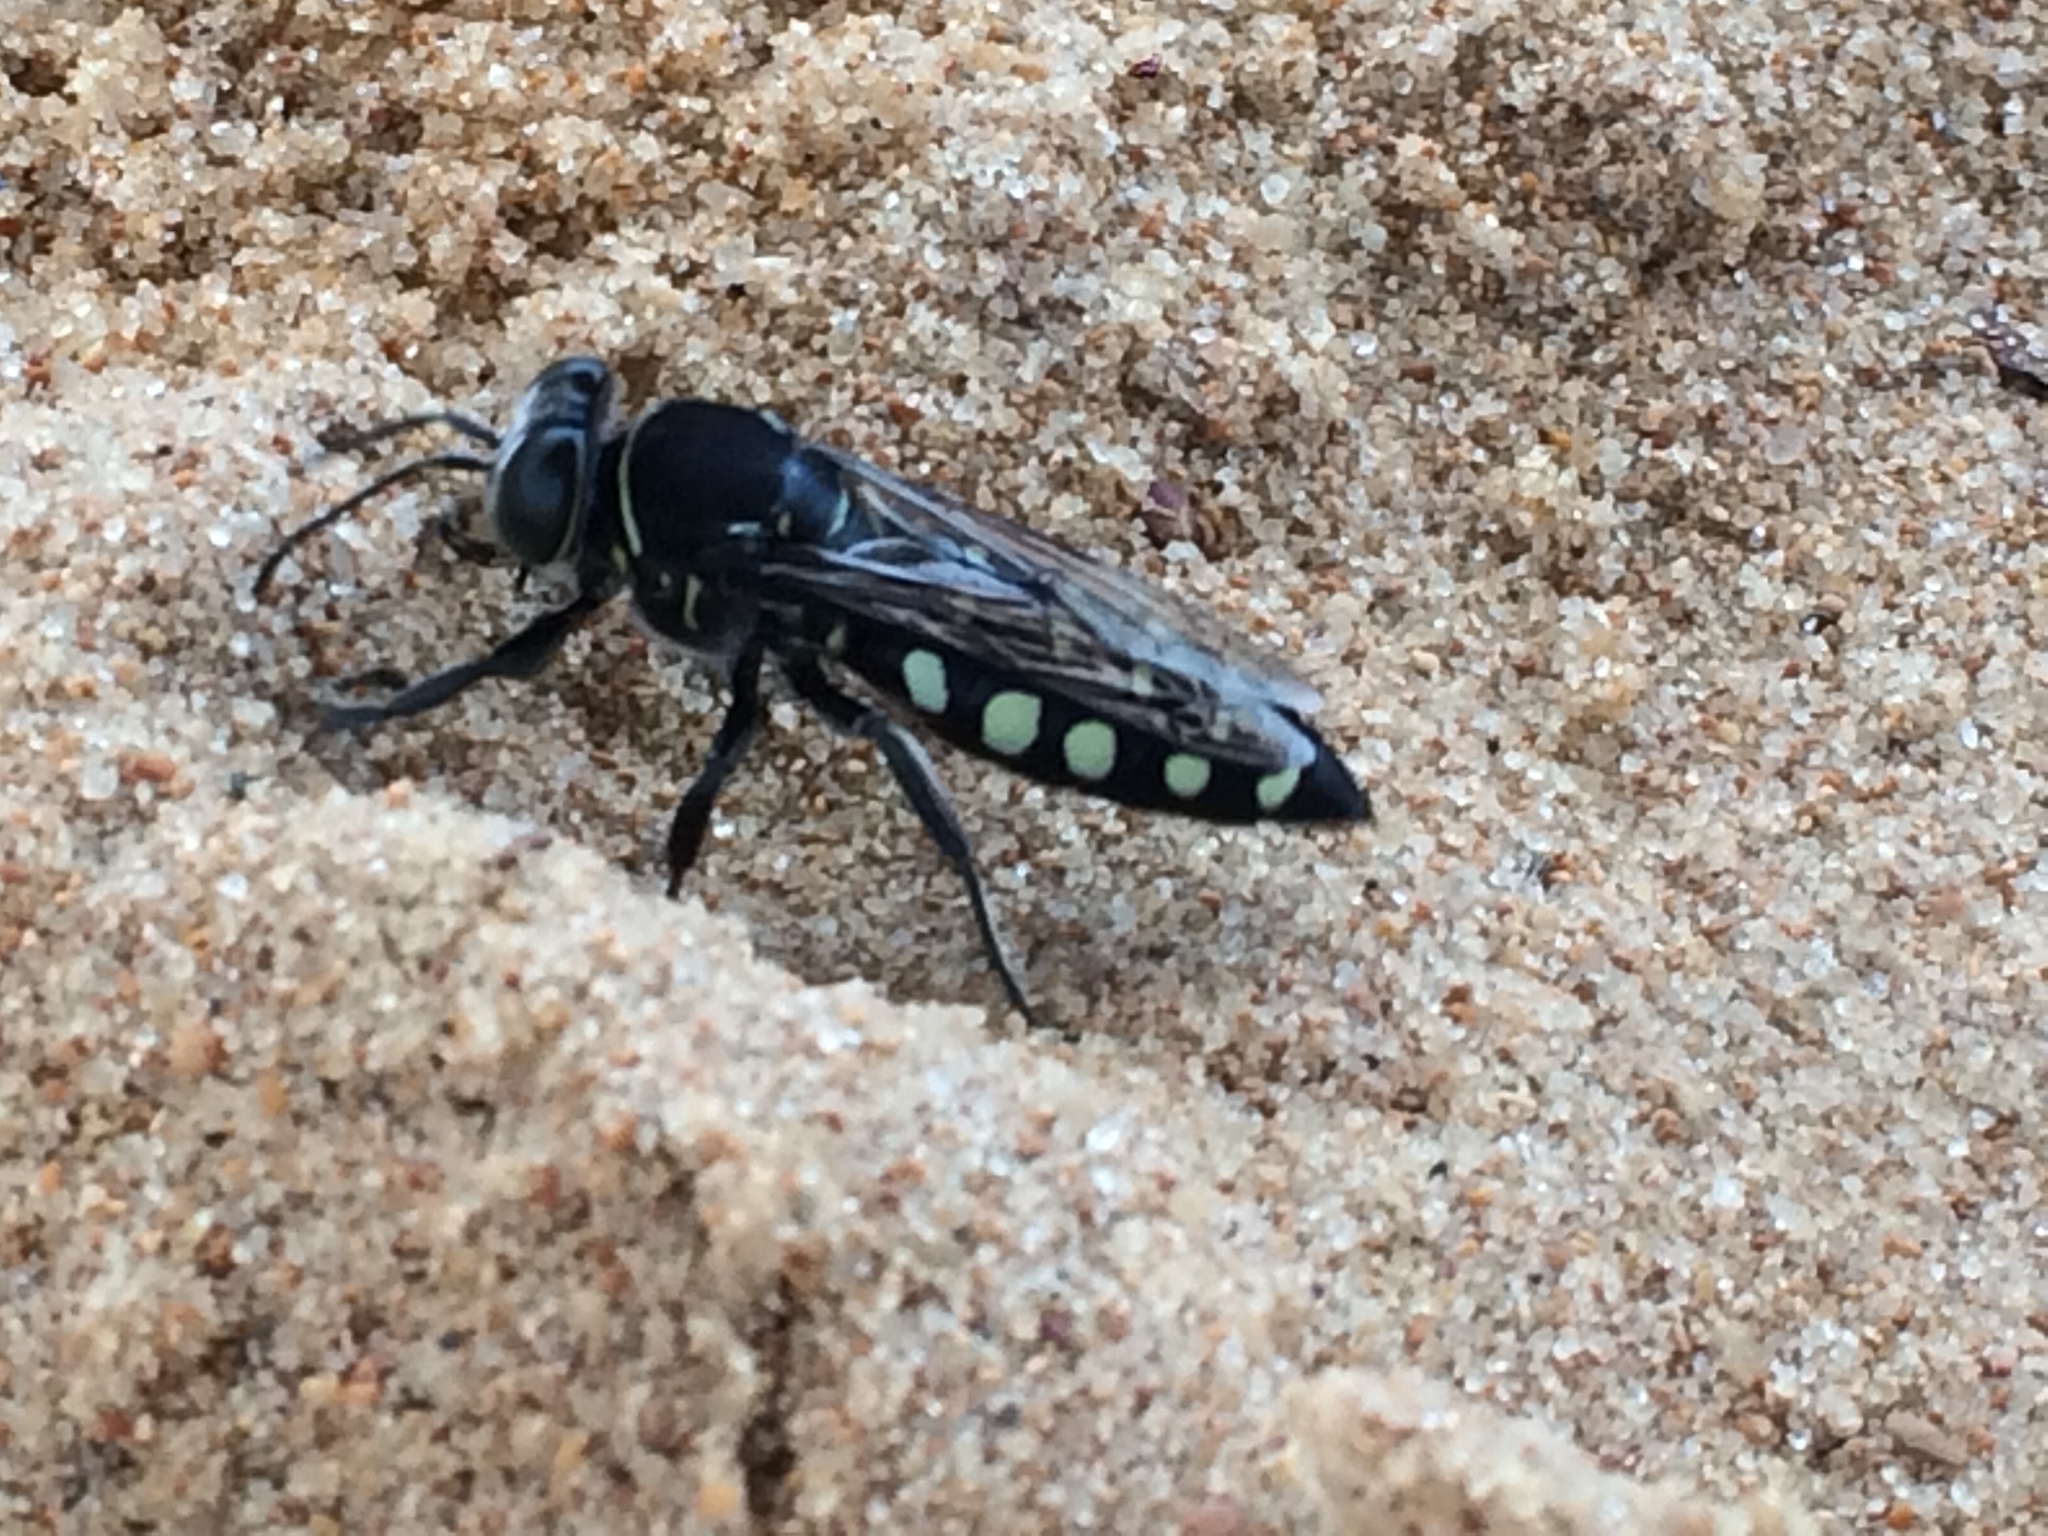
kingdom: Animalia
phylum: Arthropoda
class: Insecta
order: Hymenoptera
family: Crabronidae
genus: Stictia
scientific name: Stictia punctata
